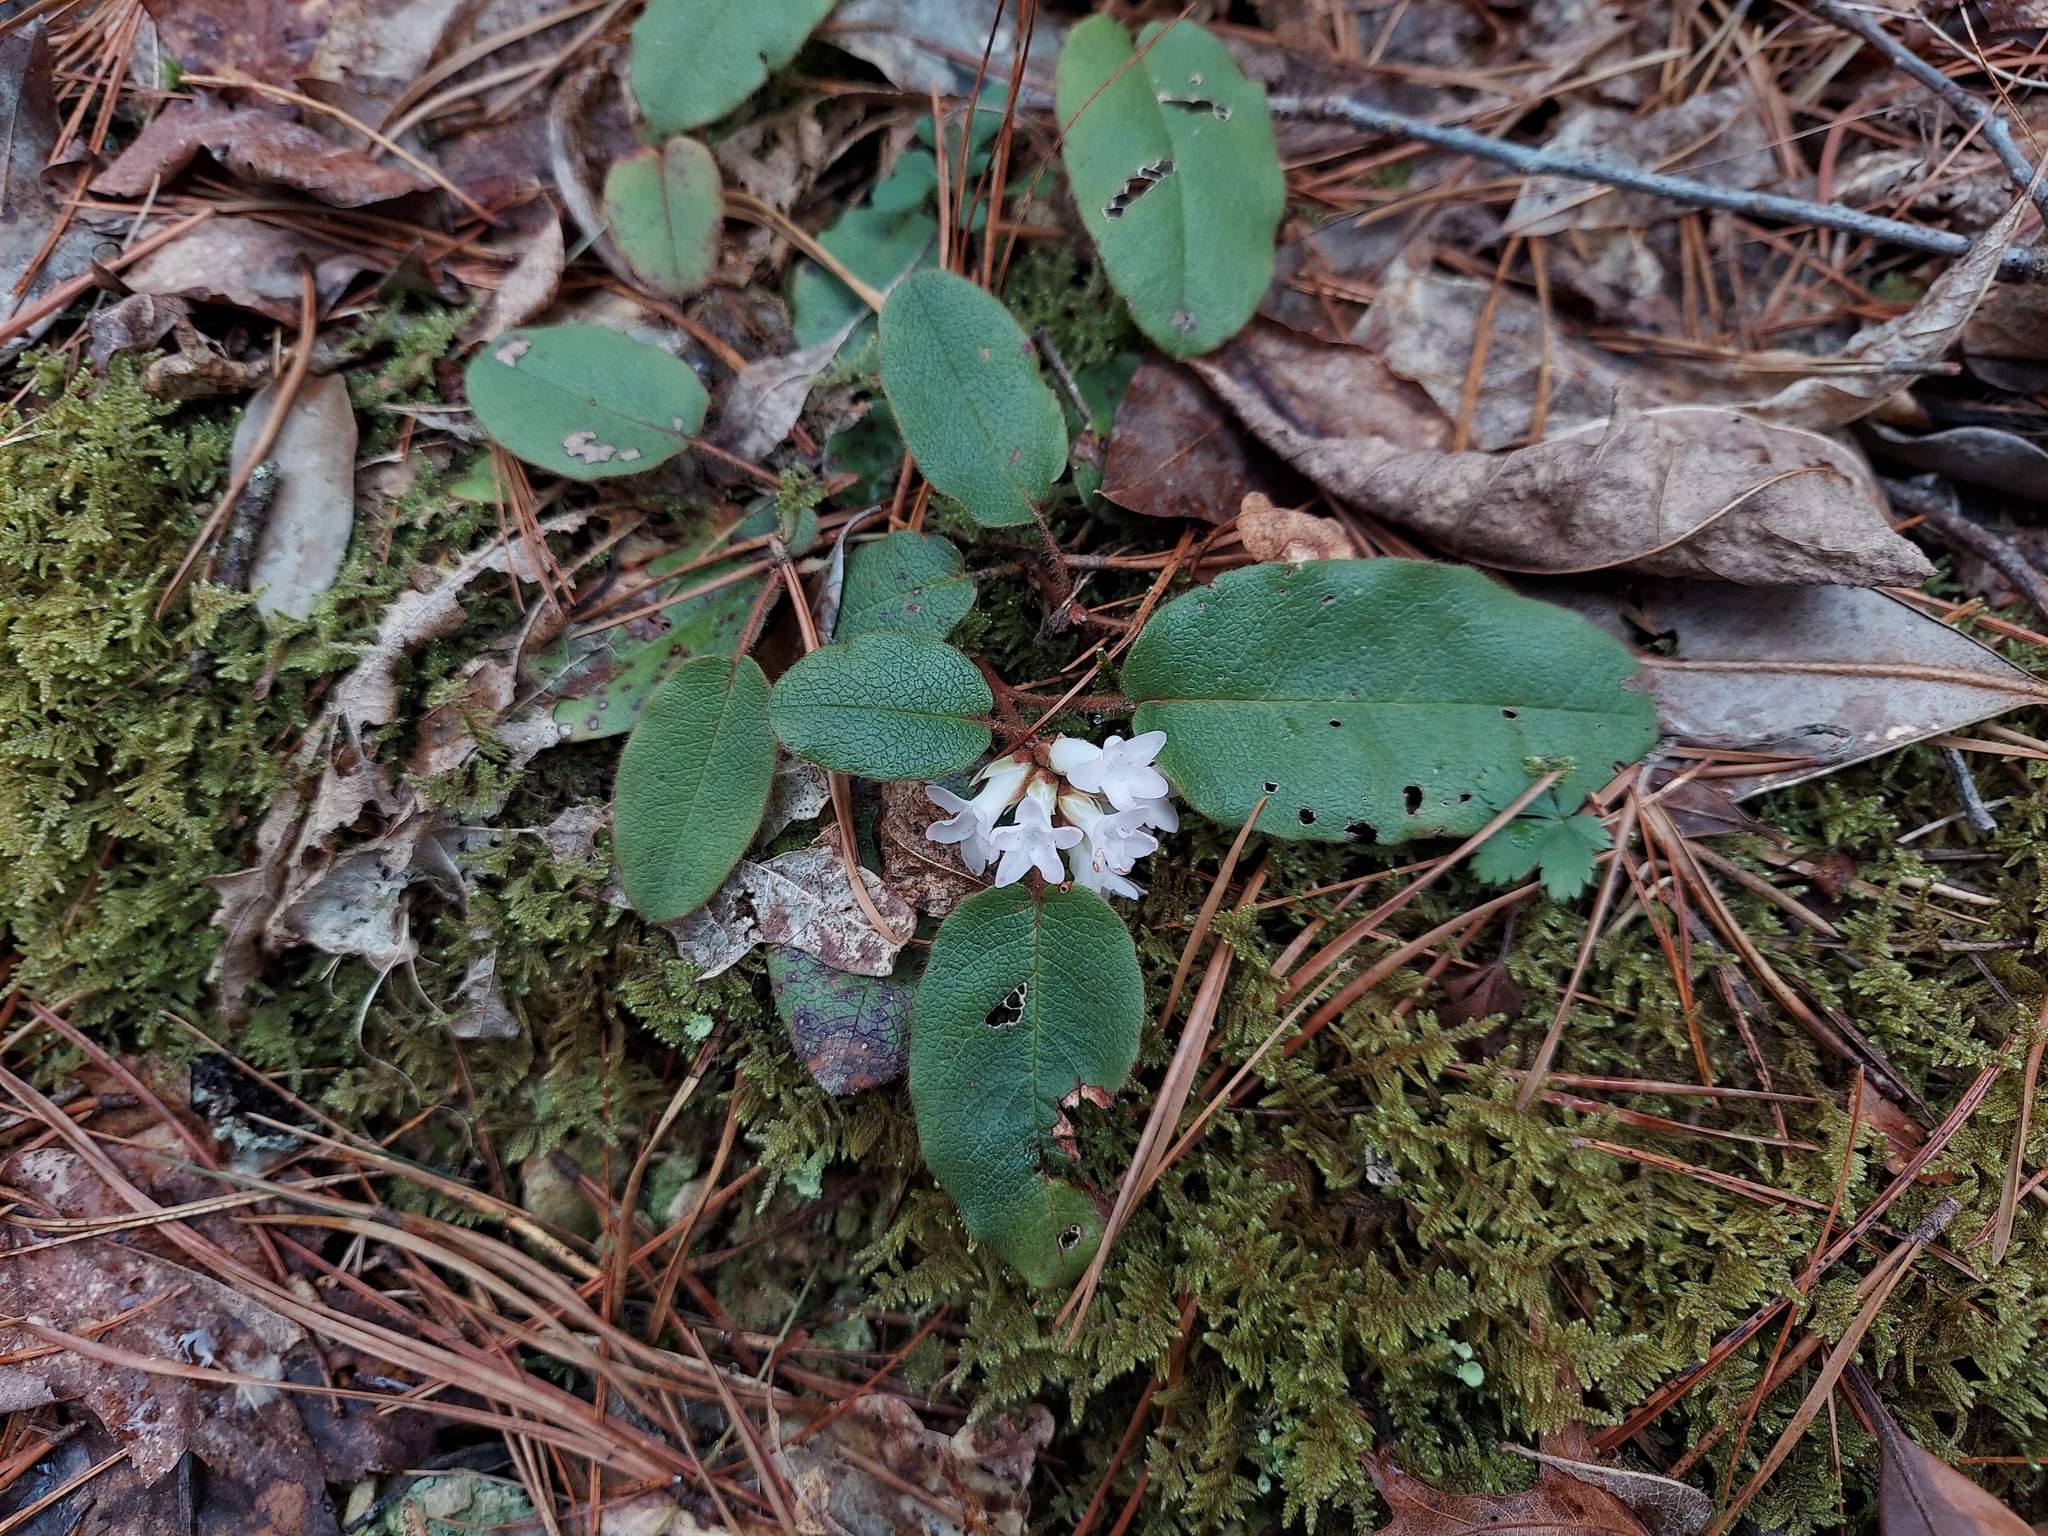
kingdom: Plantae
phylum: Tracheophyta
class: Magnoliopsida
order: Ericales
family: Ericaceae
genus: Epigaea
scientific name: Epigaea repens
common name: Gravelroot
